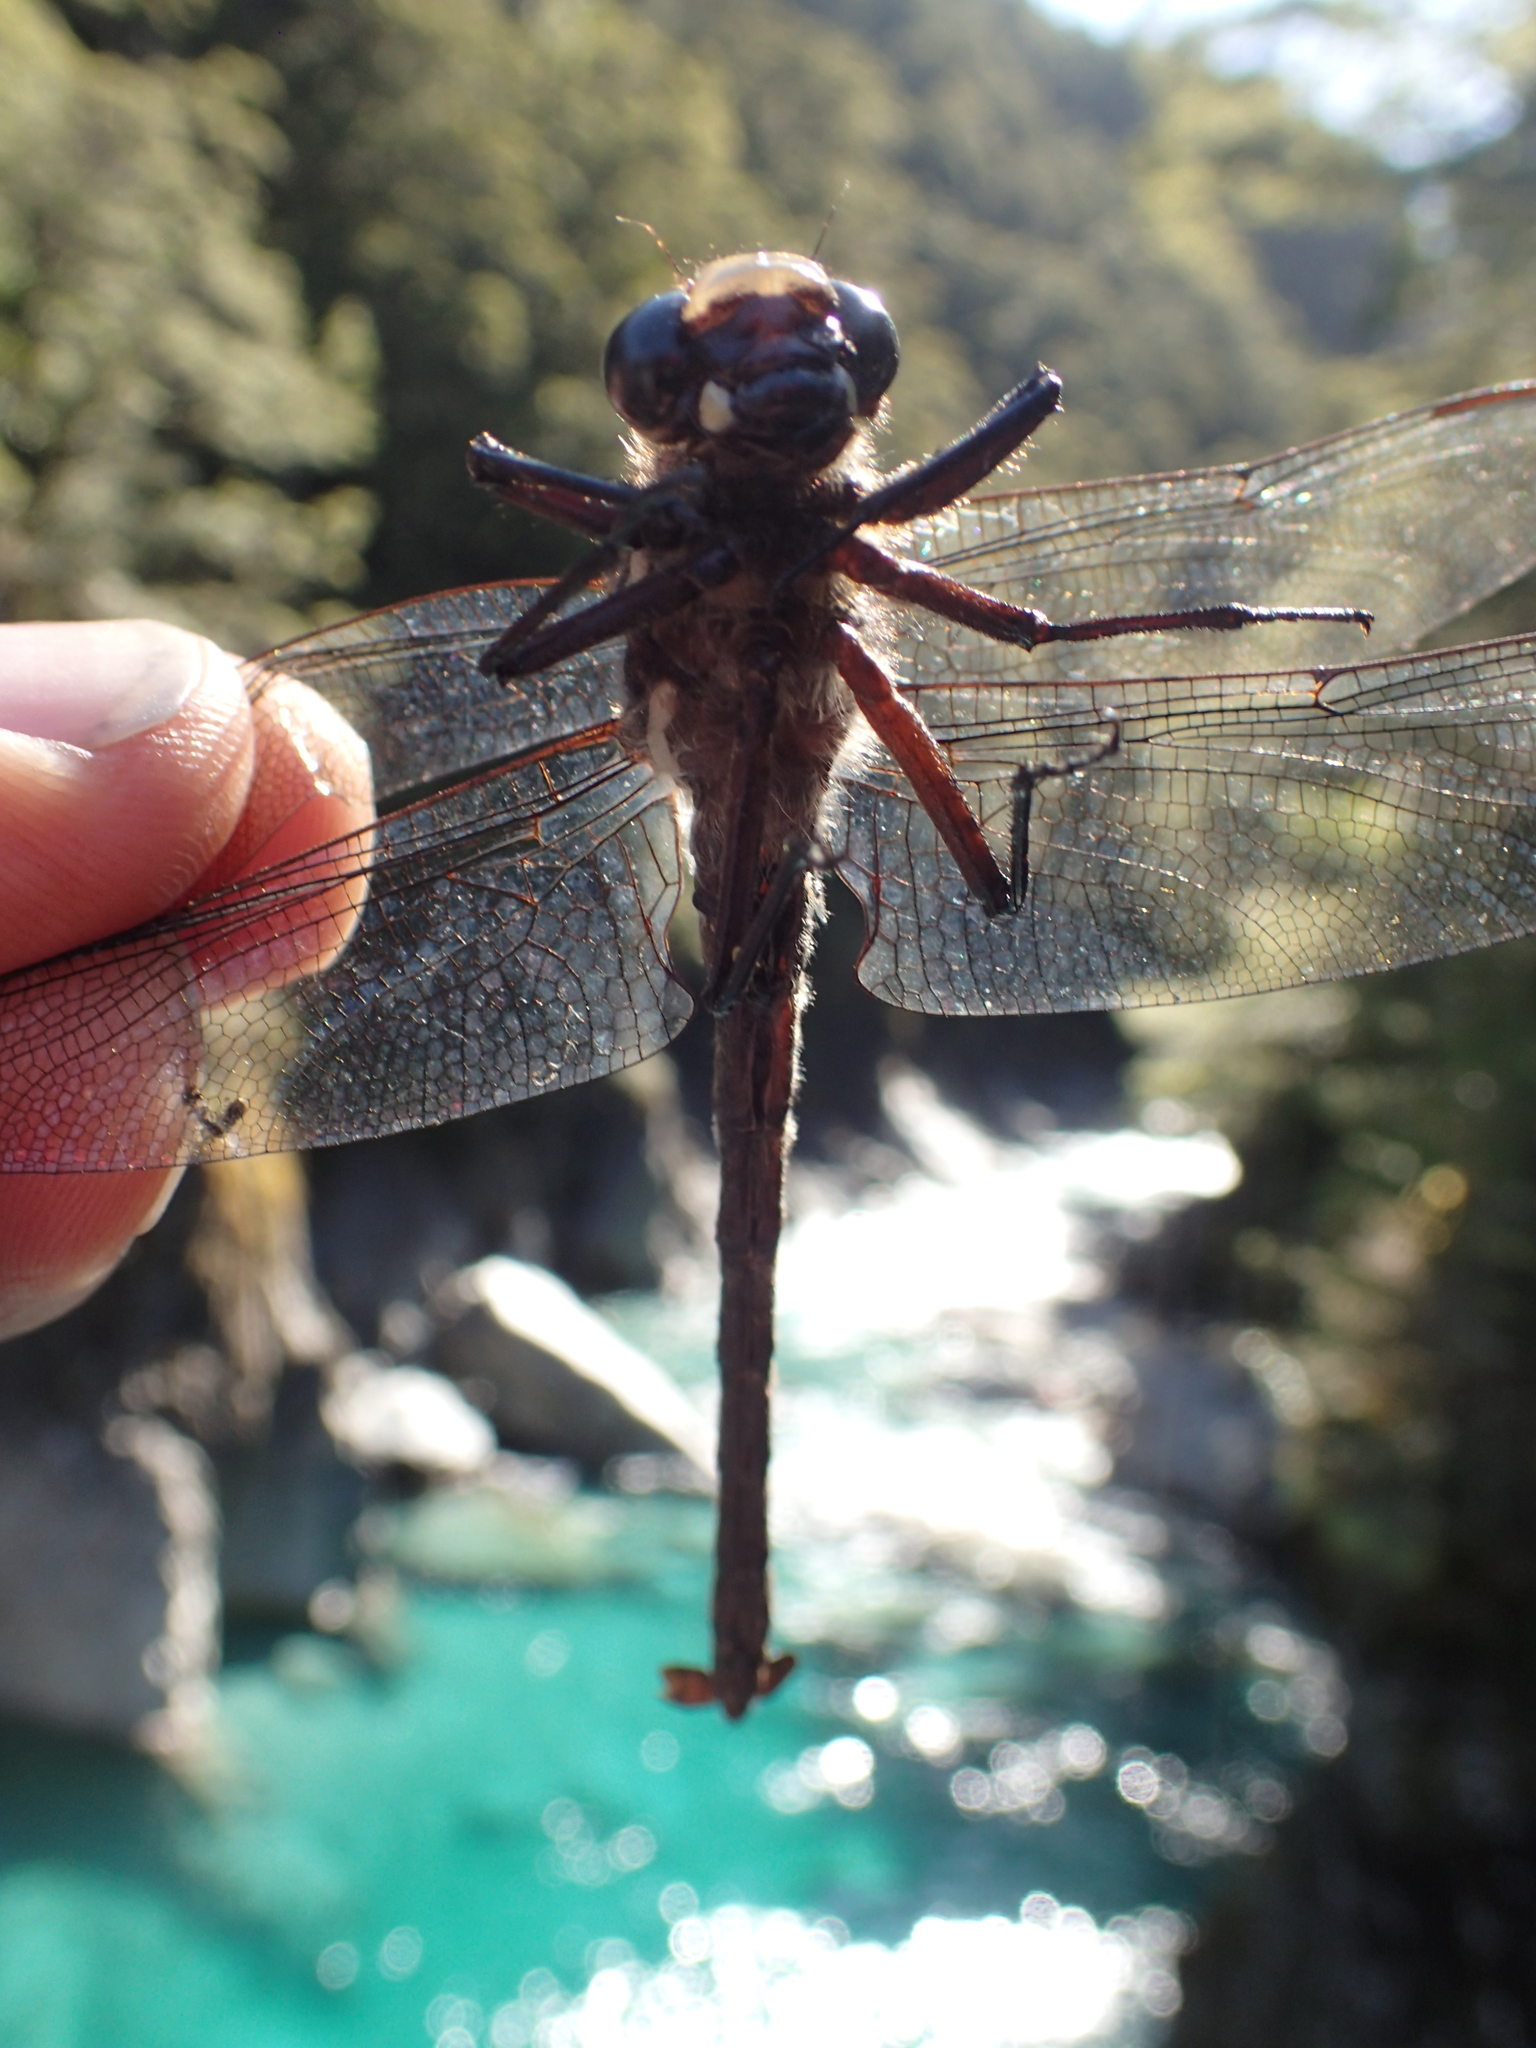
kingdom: Animalia
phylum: Arthropoda
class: Insecta
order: Odonata
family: Petaluridae
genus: Uropetala
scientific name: Uropetala carovei
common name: Bush giant dragonfly
